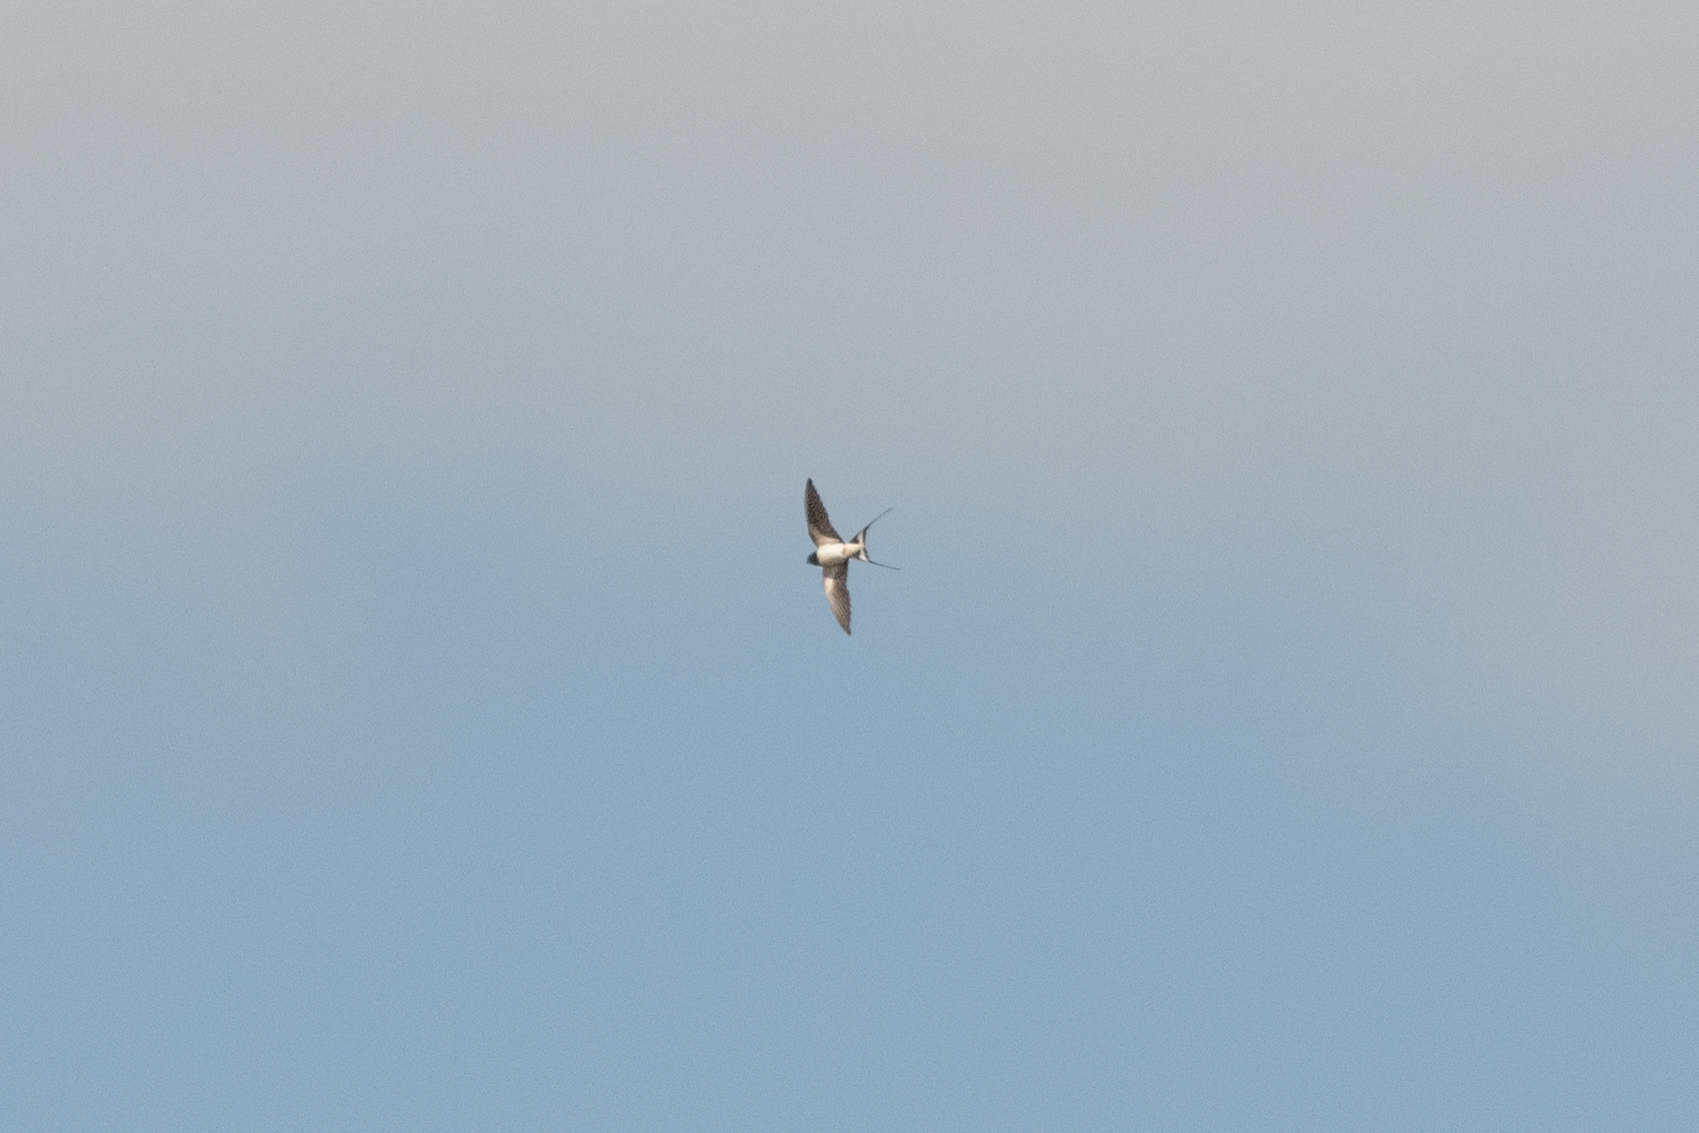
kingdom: Animalia
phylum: Chordata
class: Aves
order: Passeriformes
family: Hirundinidae
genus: Hirundo
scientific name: Hirundo rustica
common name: Barn swallow
